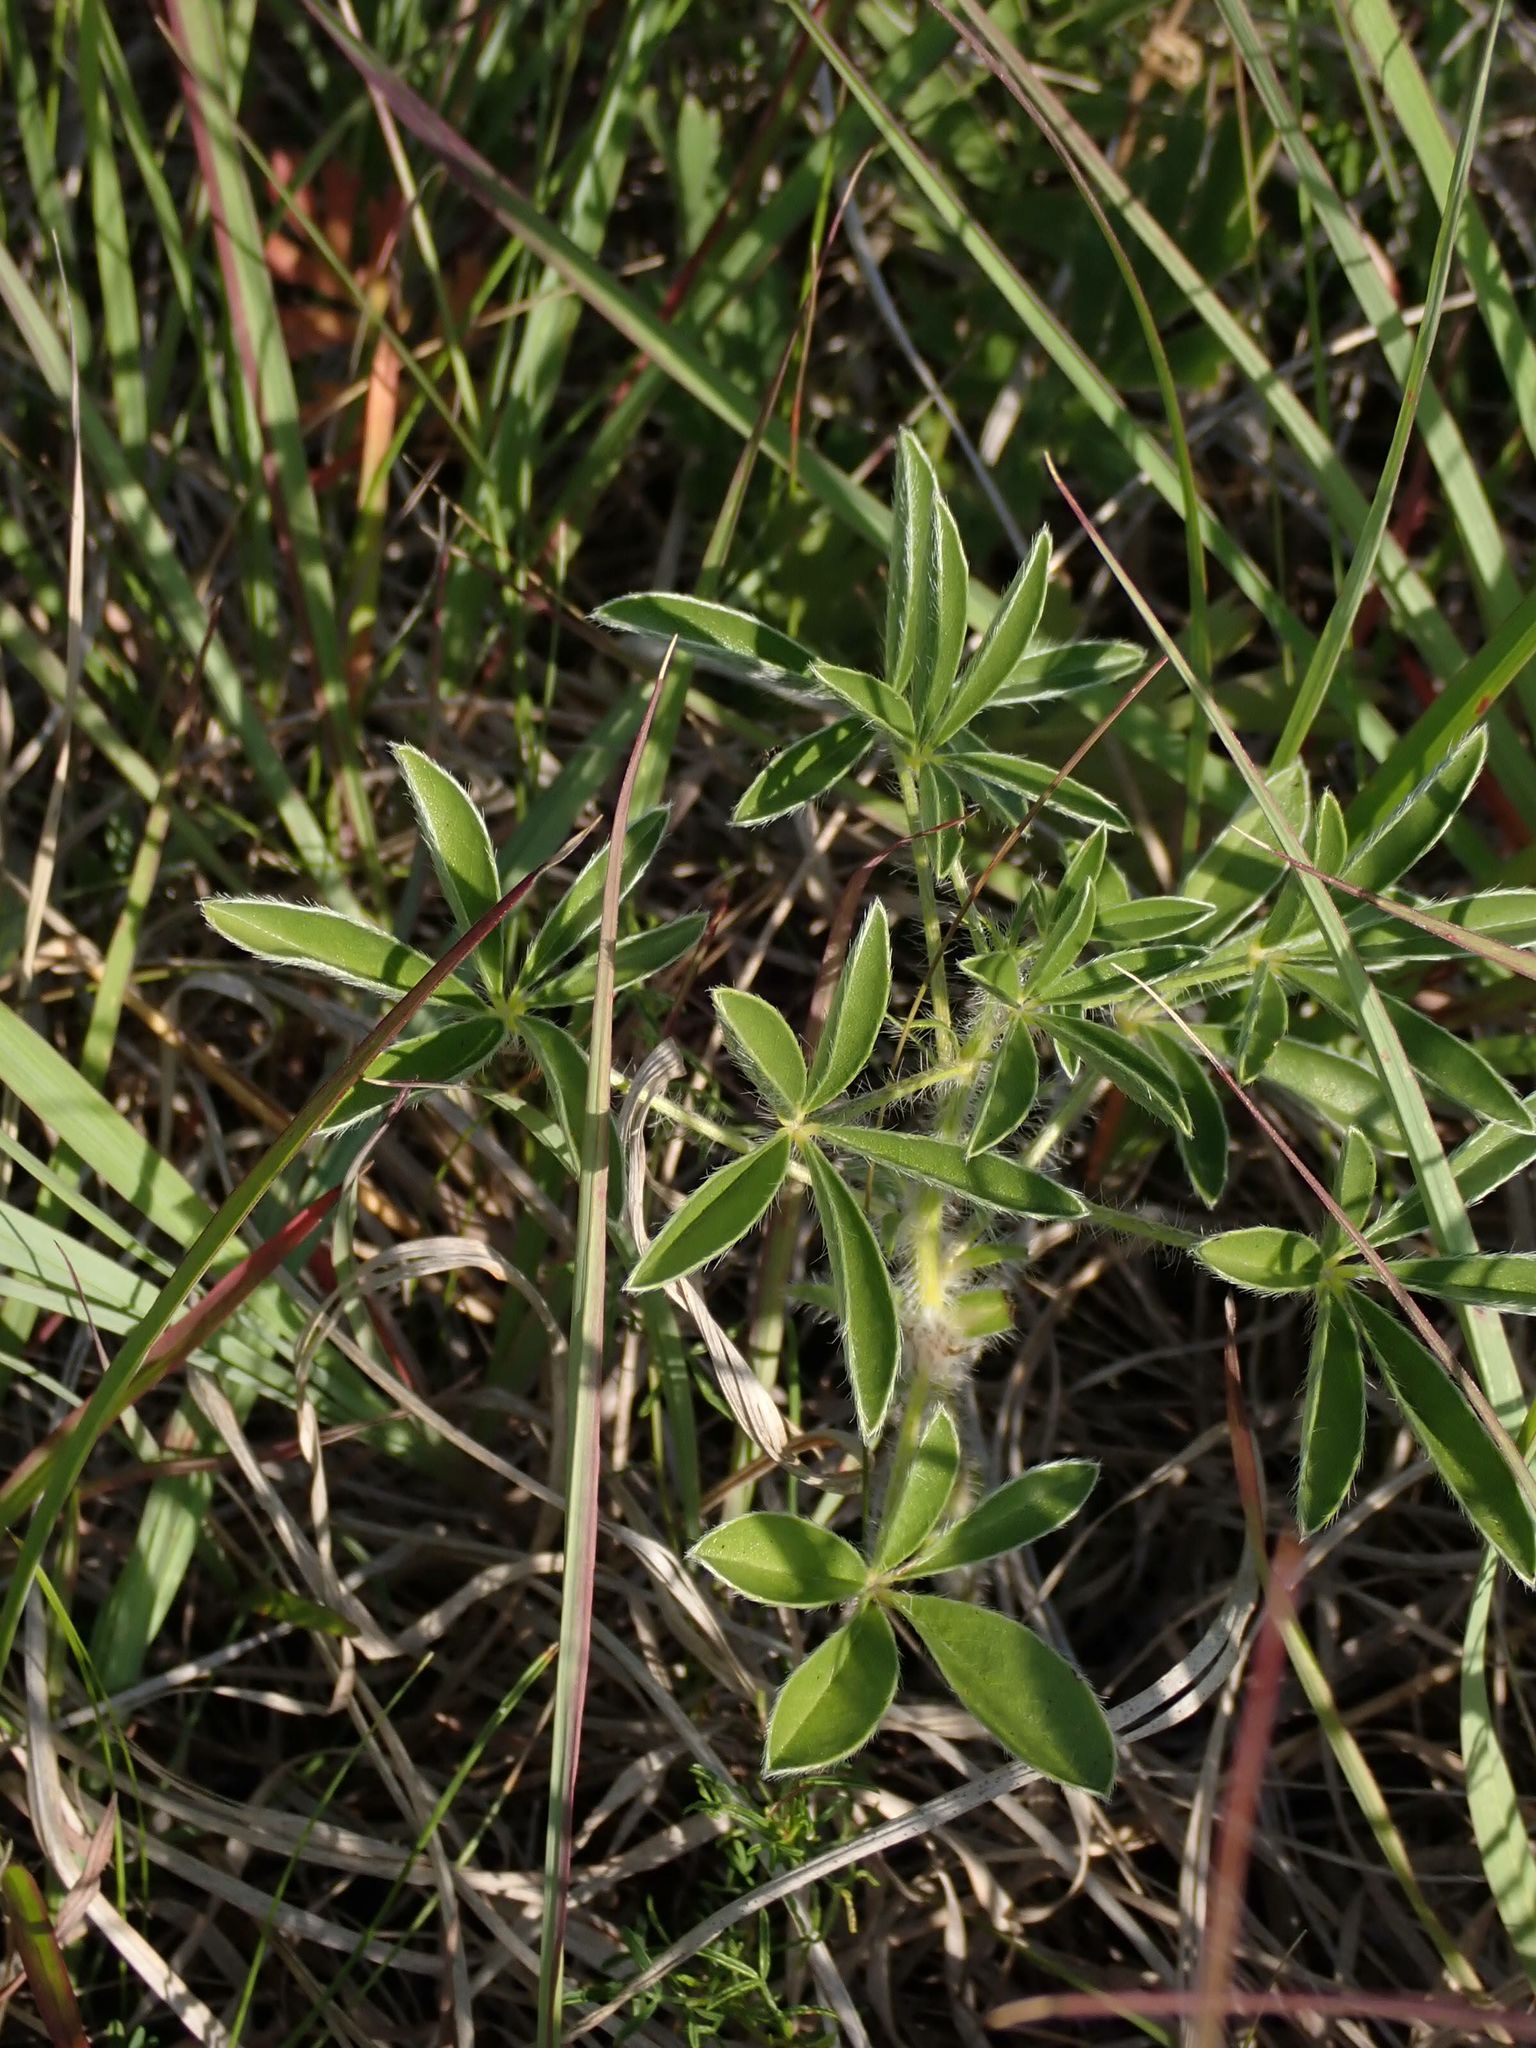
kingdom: Plantae
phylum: Tracheophyta
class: Magnoliopsida
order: Fabales
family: Fabaceae
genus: Pediomelum
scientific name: Pediomelum esculentum
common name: Indian-turnip
